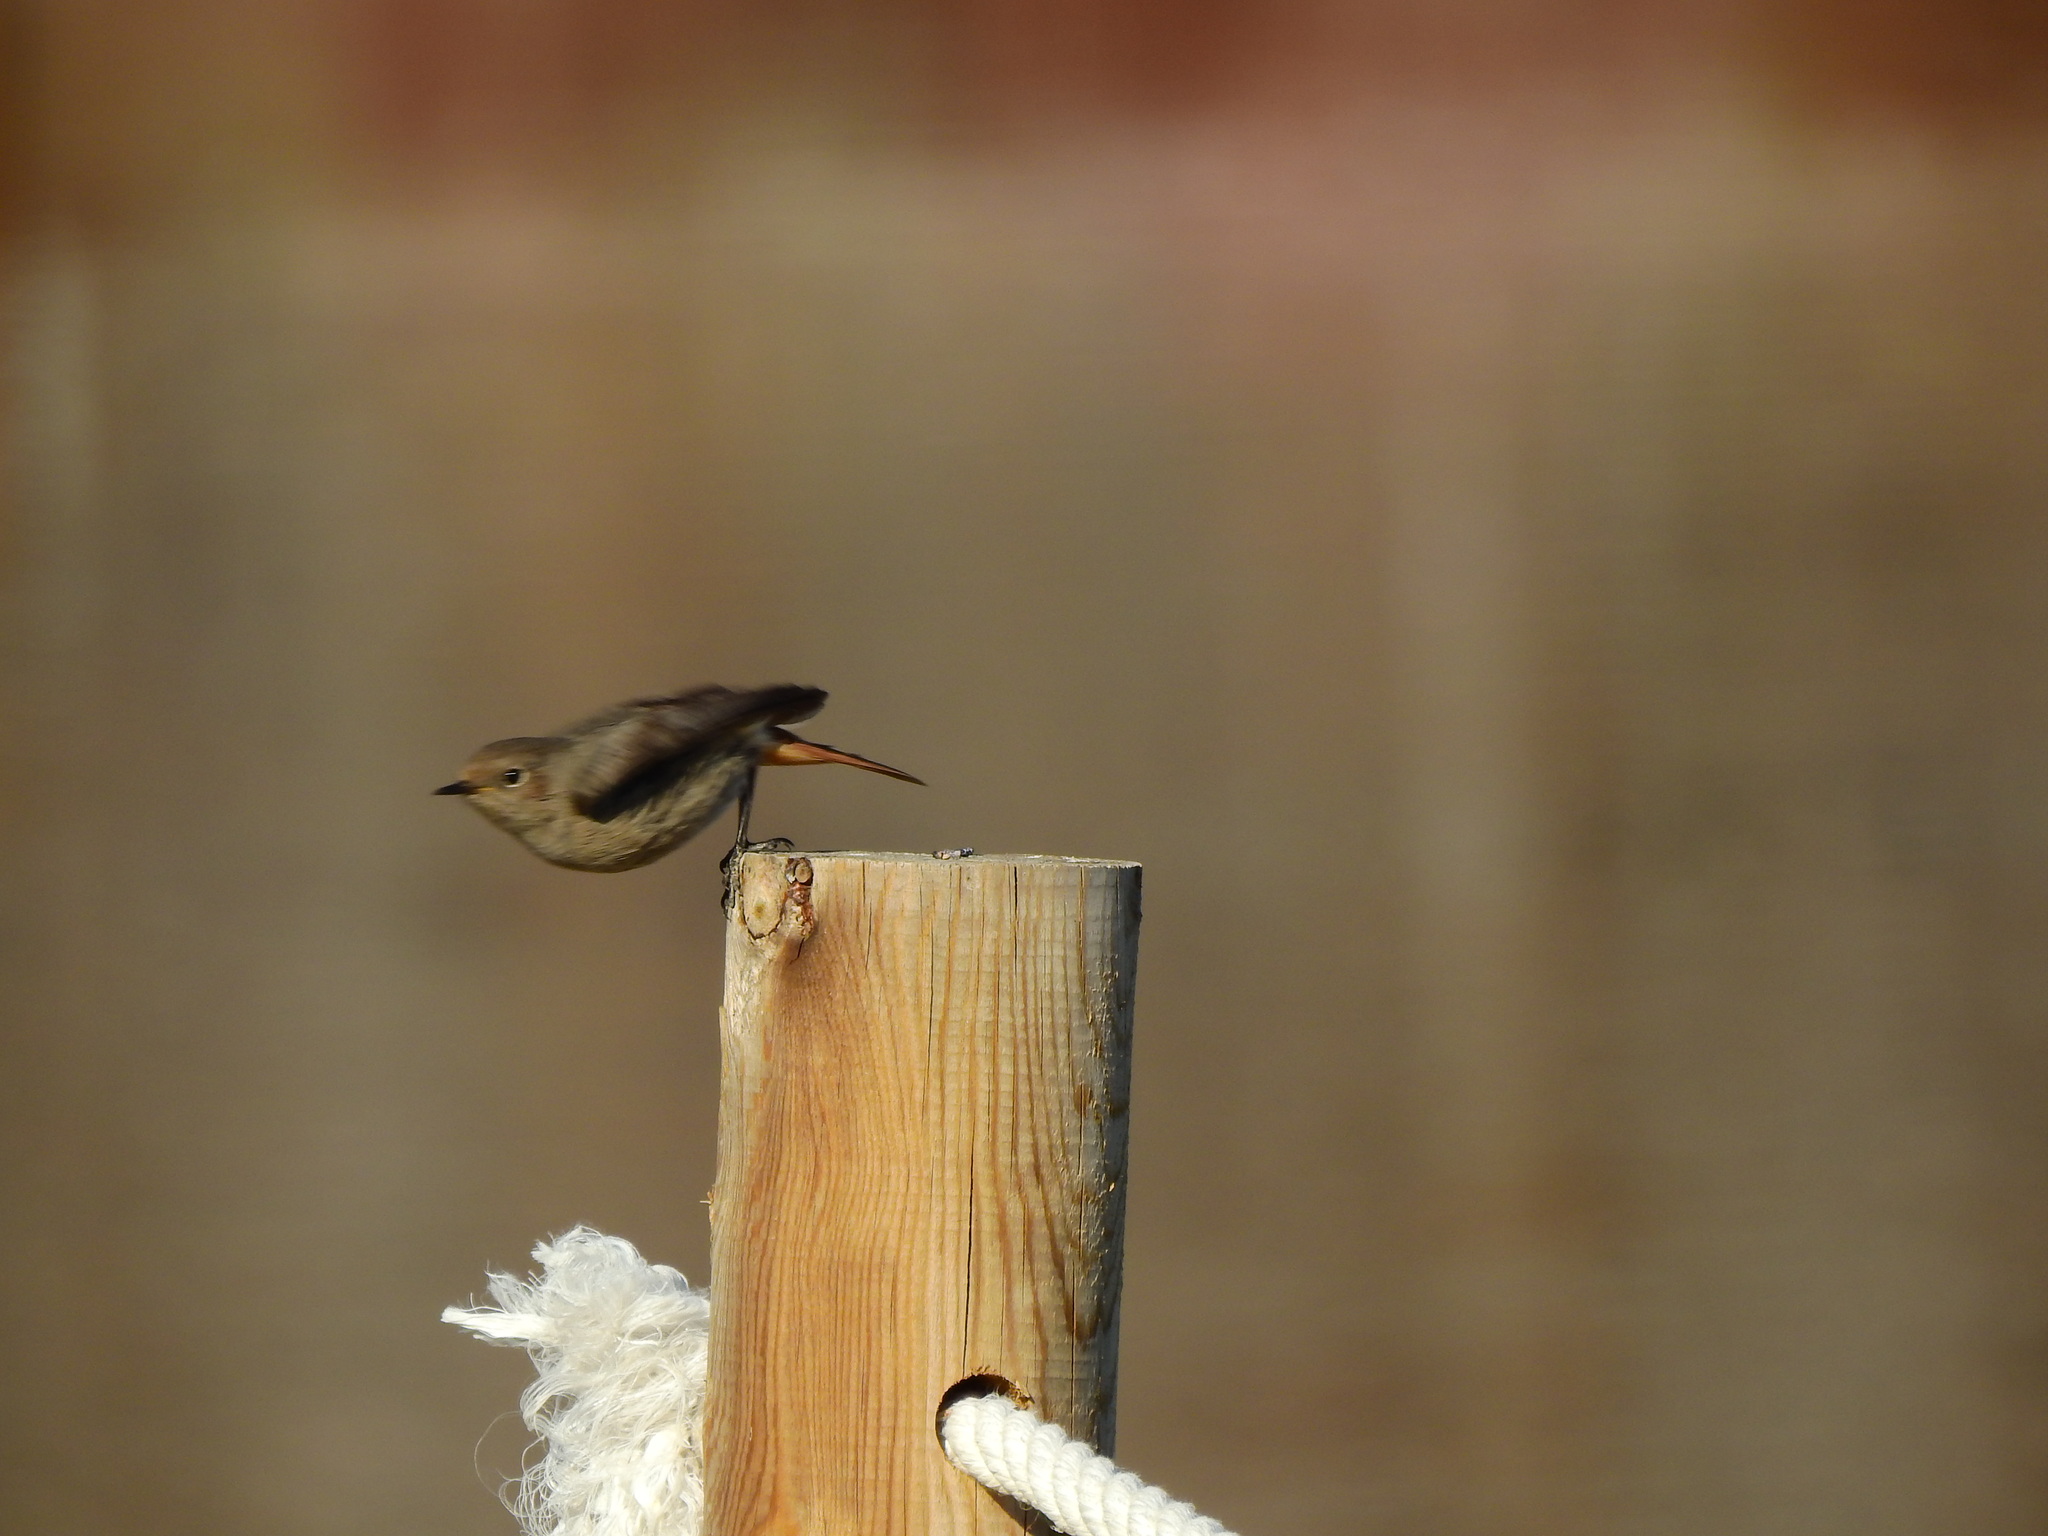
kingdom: Animalia
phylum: Chordata
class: Aves
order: Passeriformes
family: Muscicapidae
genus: Phoenicurus
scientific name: Phoenicurus ochruros
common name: Black redstart
